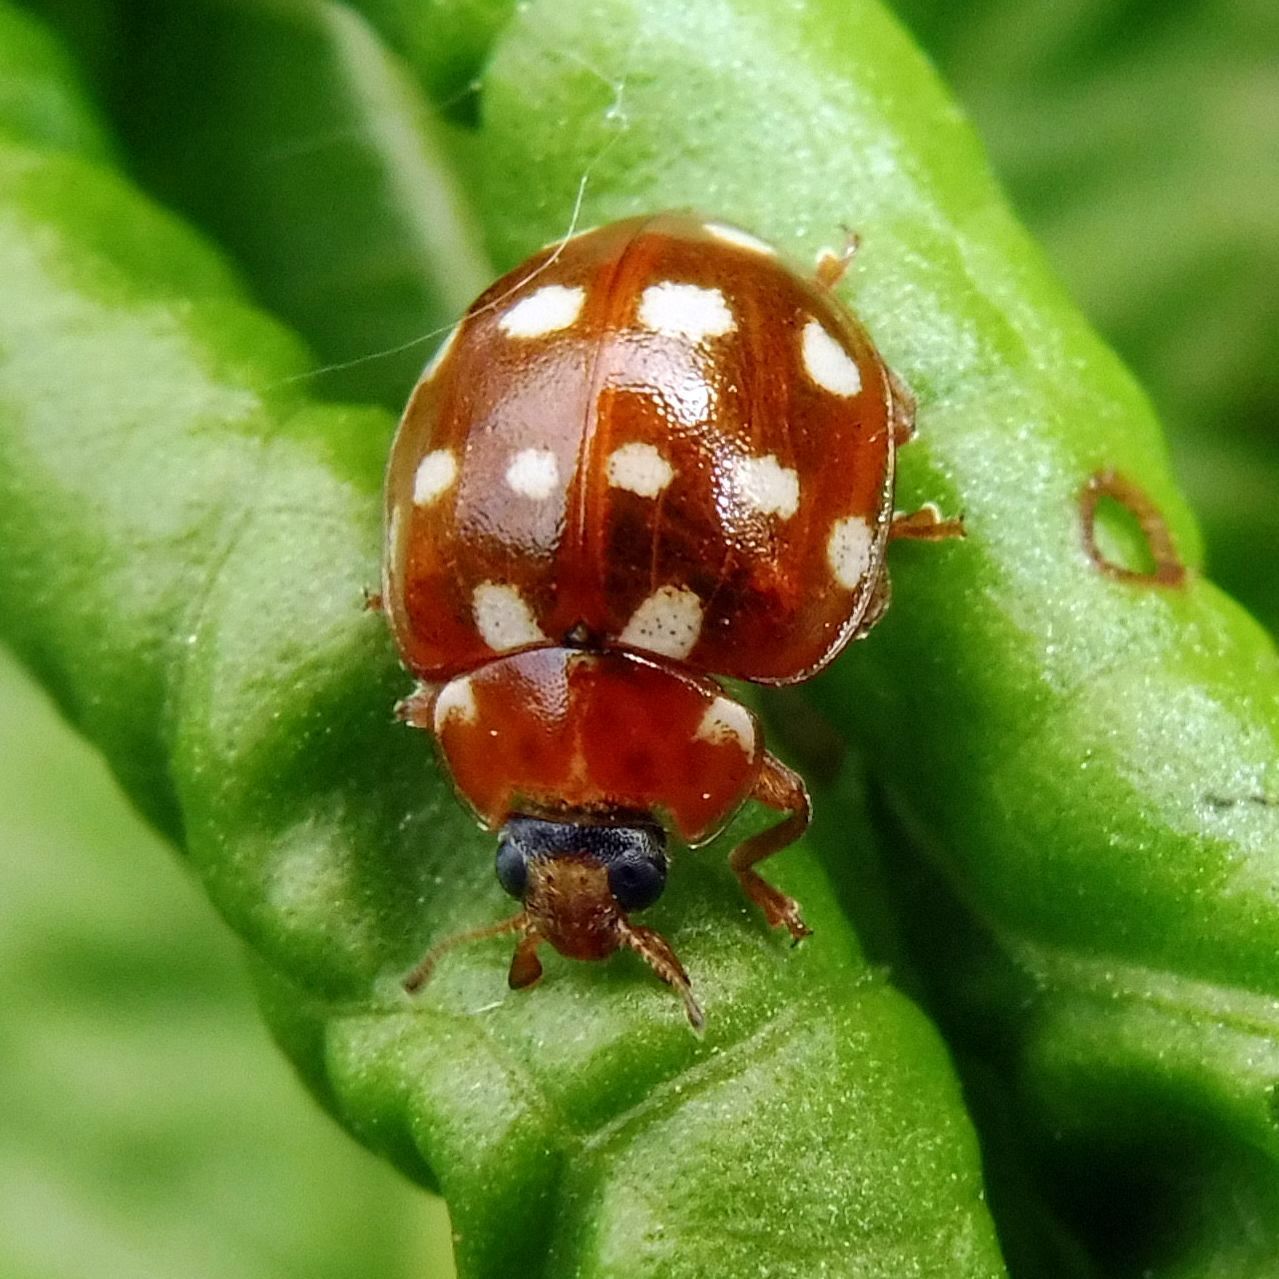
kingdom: Animalia
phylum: Arthropoda
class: Insecta
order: Coleoptera
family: Coccinellidae
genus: Calvia
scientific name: Calvia quatuordecimguttata
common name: Cream-spot ladybird
